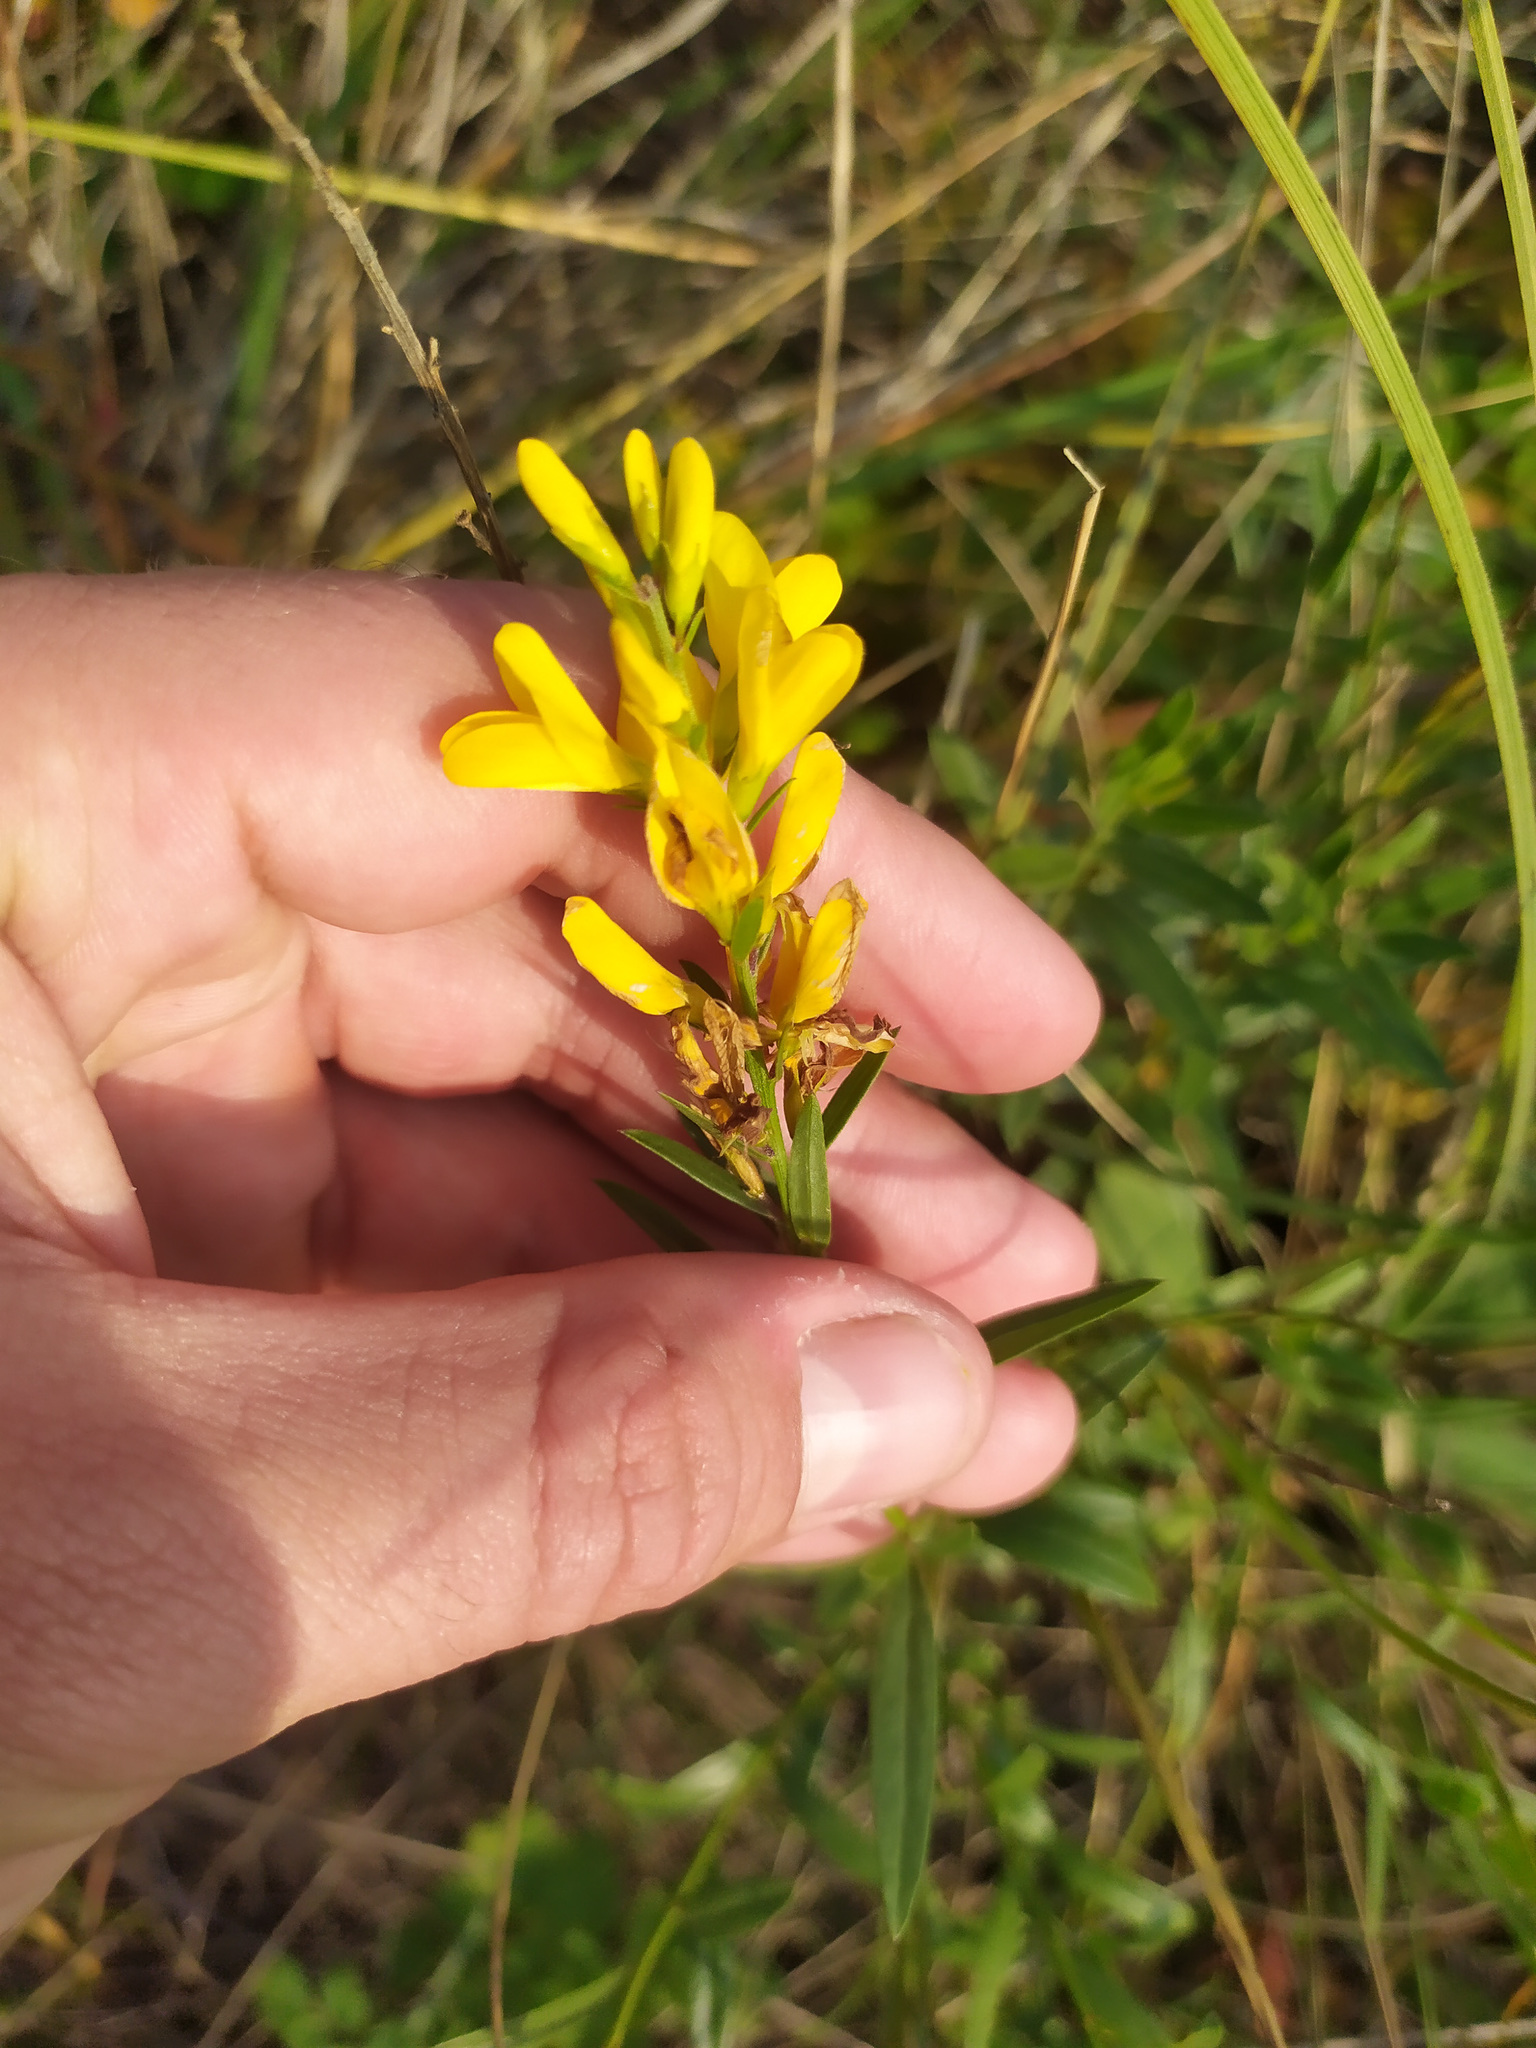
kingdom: Plantae
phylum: Tracheophyta
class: Magnoliopsida
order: Fabales
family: Fabaceae
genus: Genista
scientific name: Genista tinctoria
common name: Dyer's greenweed
